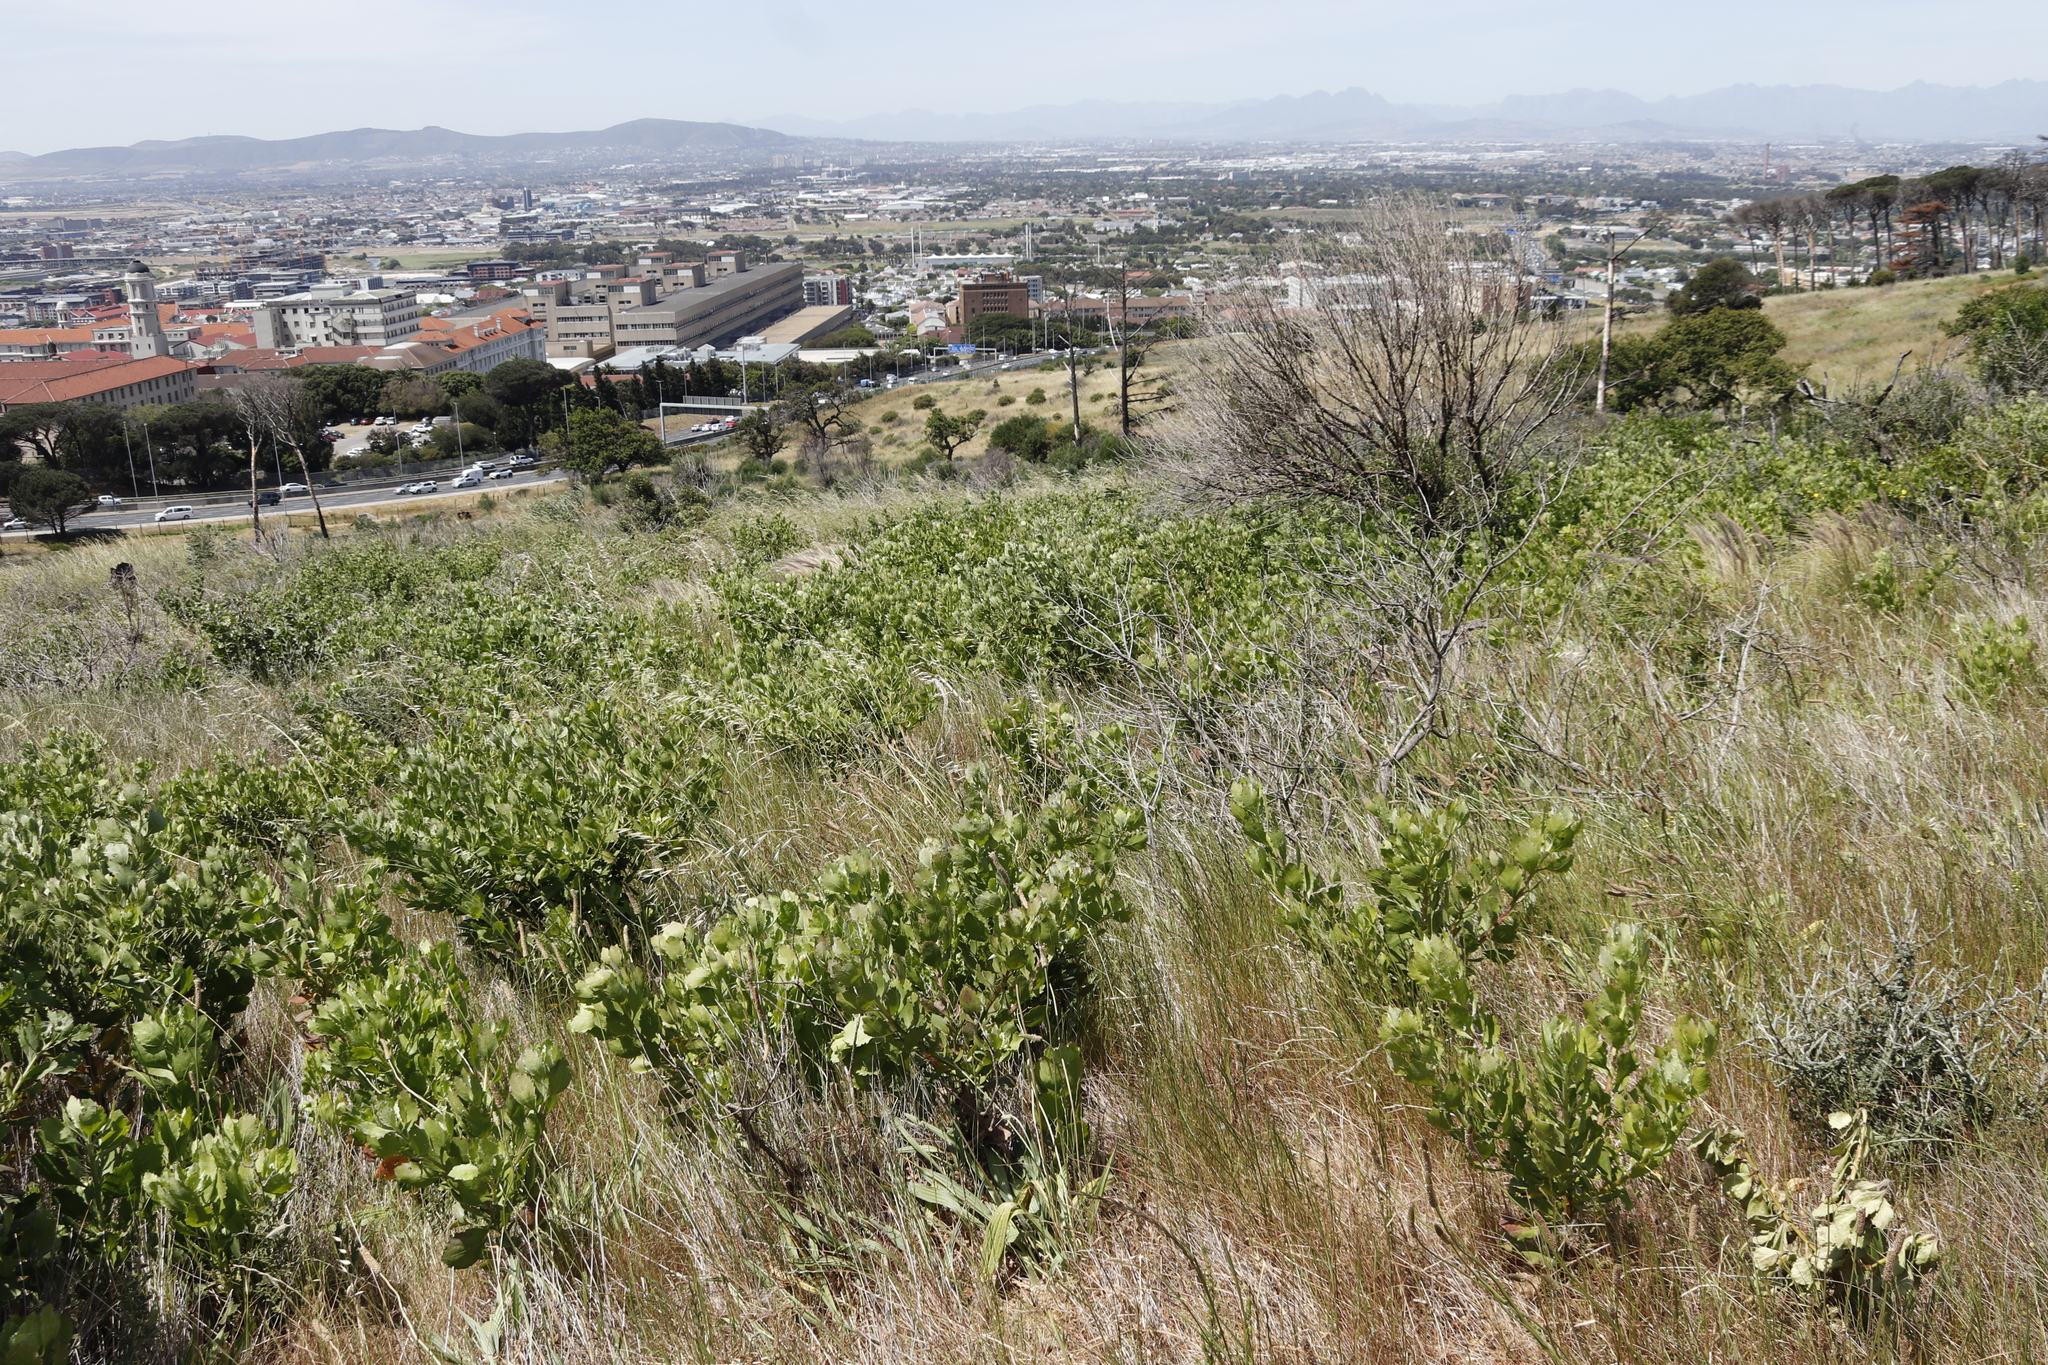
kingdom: Plantae
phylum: Tracheophyta
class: Magnoliopsida
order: Asterales
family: Asteraceae
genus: Osteospermum
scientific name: Osteospermum moniliferum
